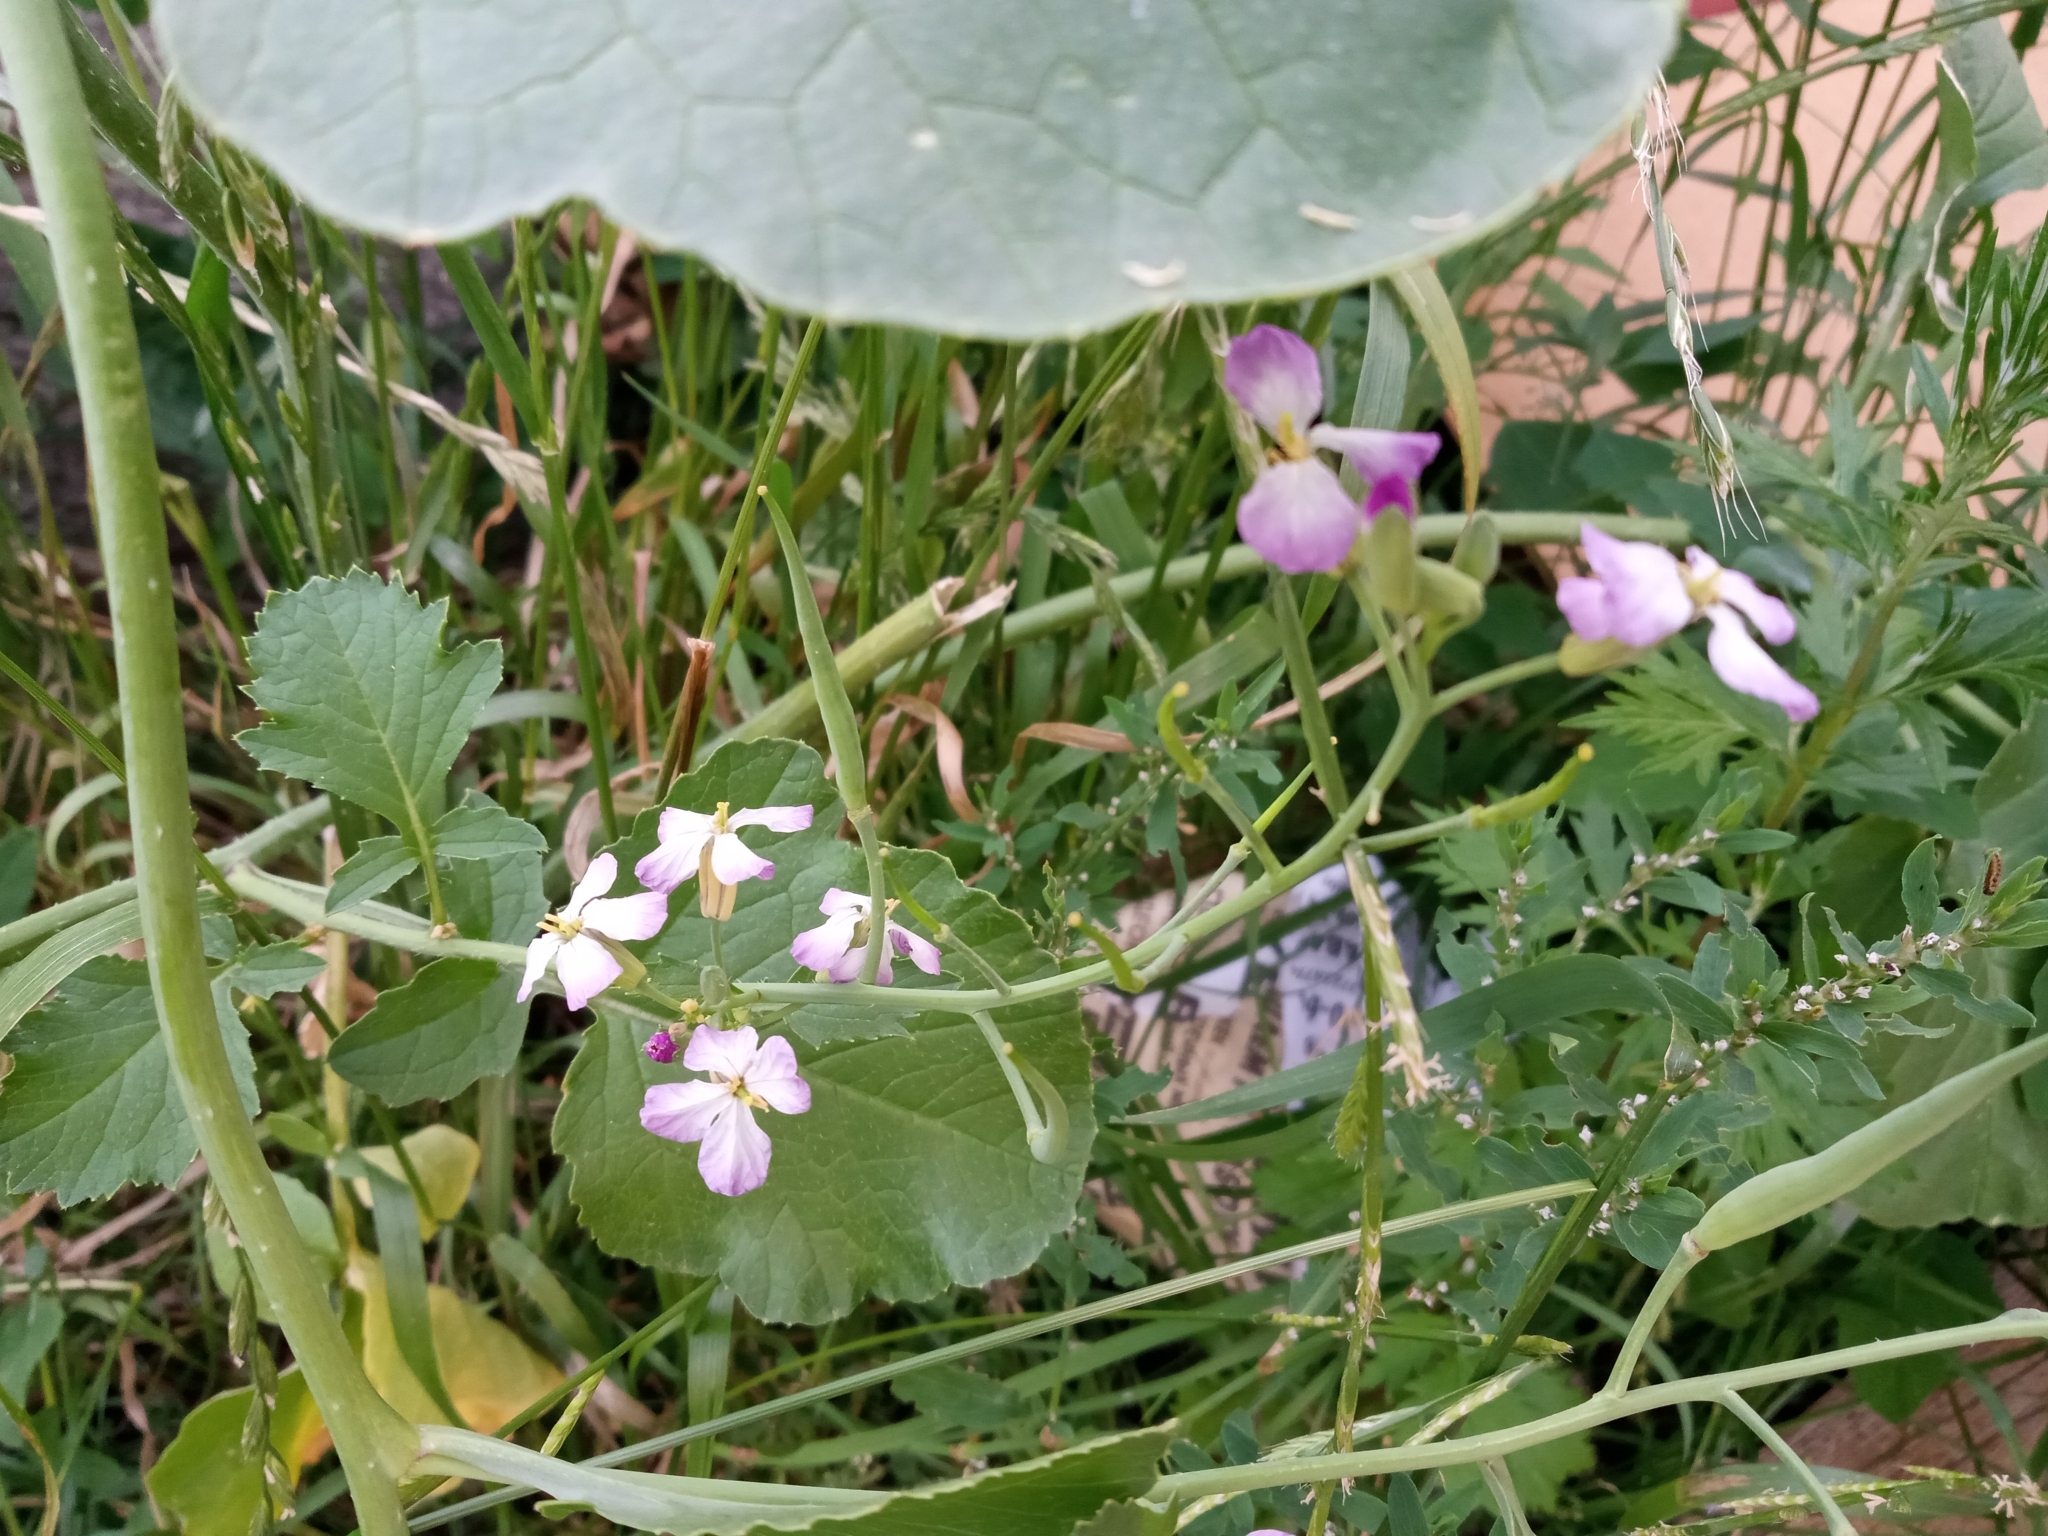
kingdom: Plantae
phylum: Tracheophyta
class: Magnoliopsida
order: Brassicales
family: Brassicaceae
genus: Raphanus
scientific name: Raphanus raphanistrum
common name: Wild radish
